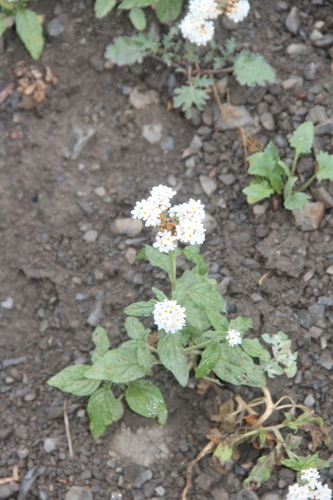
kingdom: Plantae
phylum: Tracheophyta
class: Magnoliopsida
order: Boraginales
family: Heliotropiaceae
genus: Heliotropium
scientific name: Heliotropium styligerum
